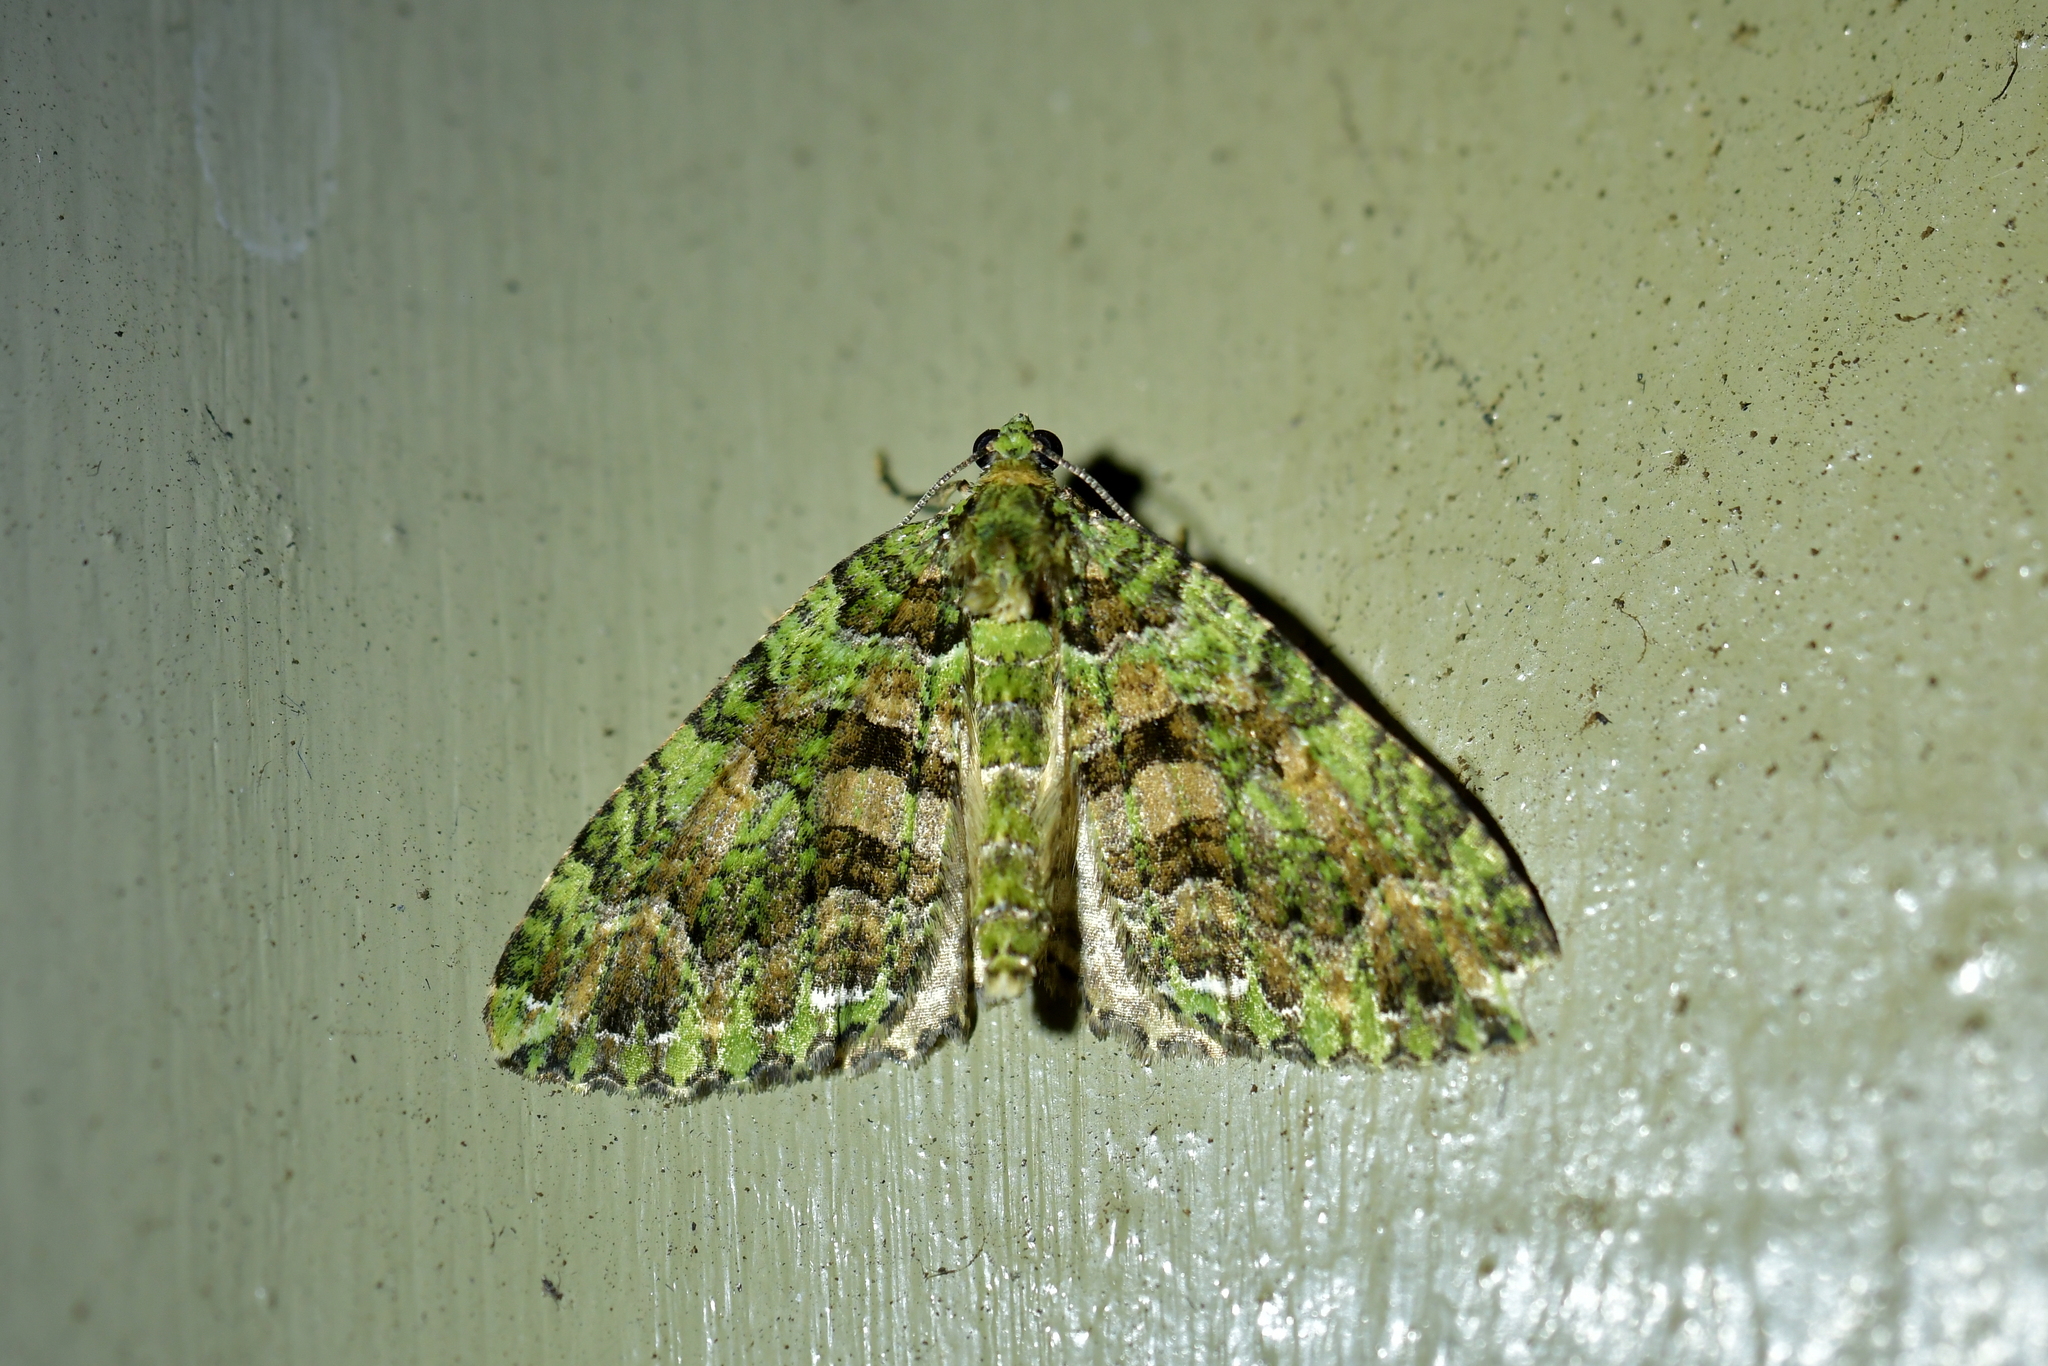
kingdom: Animalia
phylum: Arthropoda
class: Insecta
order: Lepidoptera
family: Geometridae
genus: Austrocidaria
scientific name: Austrocidaria similata
